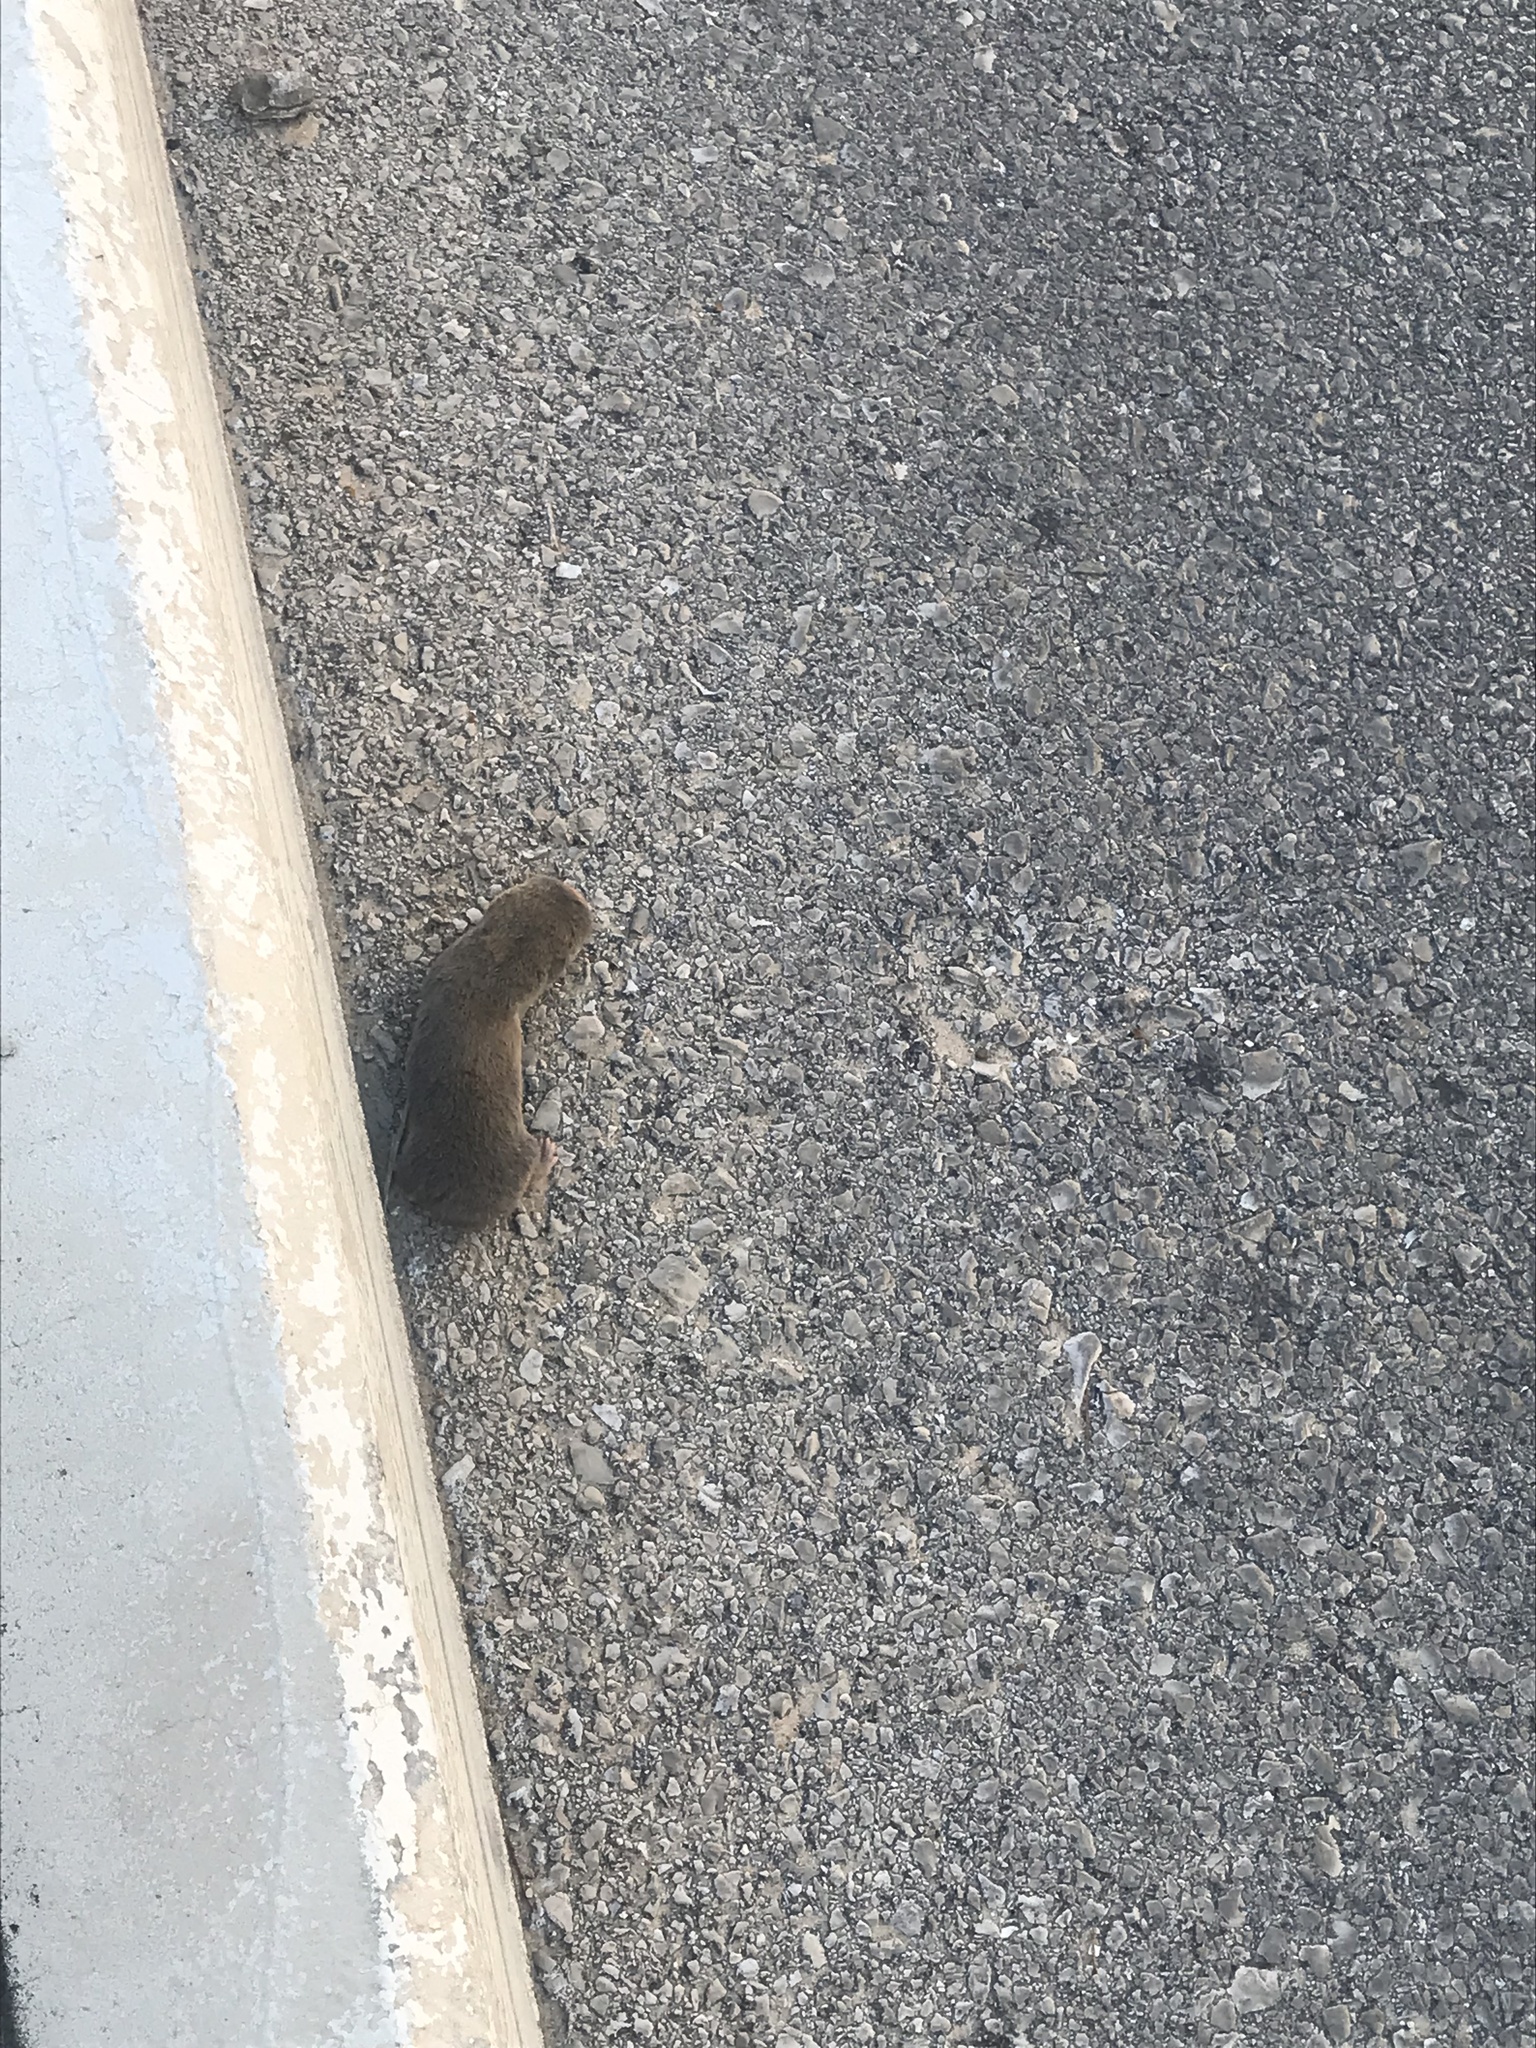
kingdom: Animalia
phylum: Chordata
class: Mammalia
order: Rodentia
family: Spalacidae
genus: Spalax
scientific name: Spalax ehrenbergi
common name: Middle east blind mole rat
